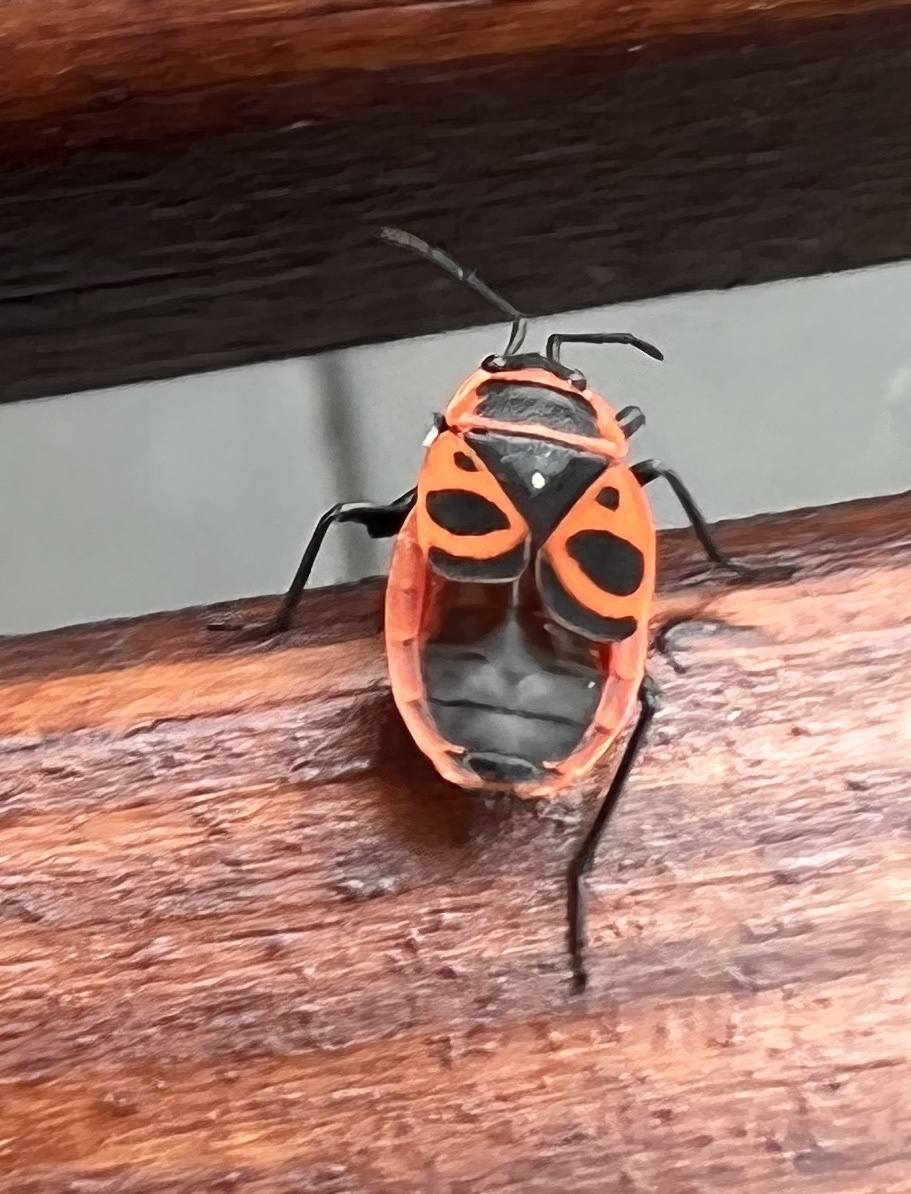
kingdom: Animalia
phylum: Arthropoda
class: Insecta
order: Hemiptera
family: Pyrrhocoridae
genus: Pyrrhocoris
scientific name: Pyrrhocoris apterus
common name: Firebug
